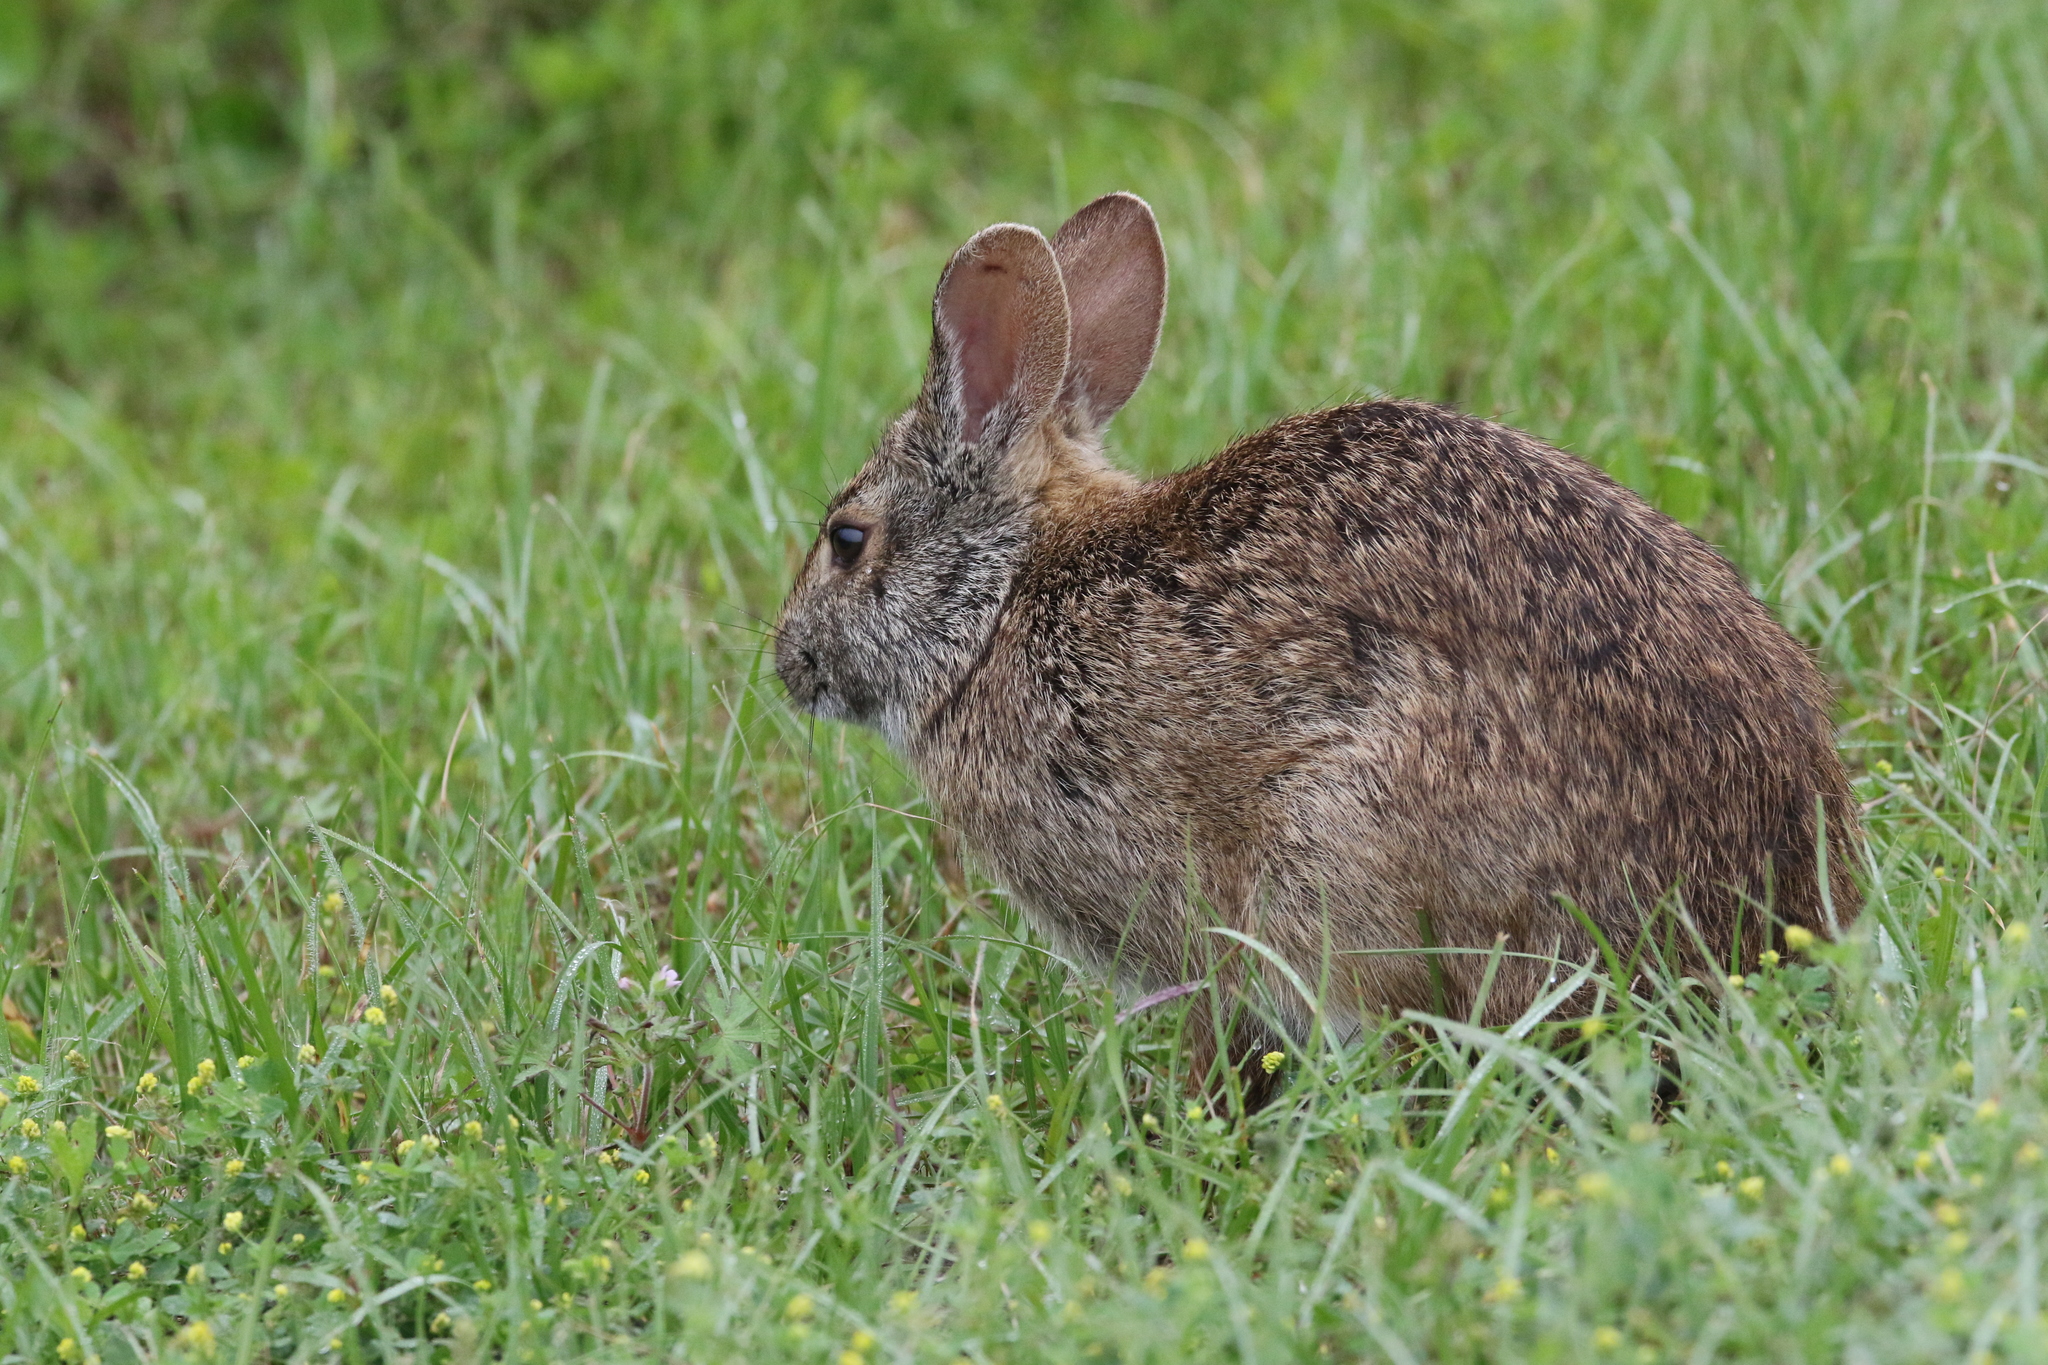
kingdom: Animalia
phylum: Chordata
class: Mammalia
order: Lagomorpha
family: Leporidae
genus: Sylvilagus
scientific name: Sylvilagus palustris
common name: Marsh rabbit
